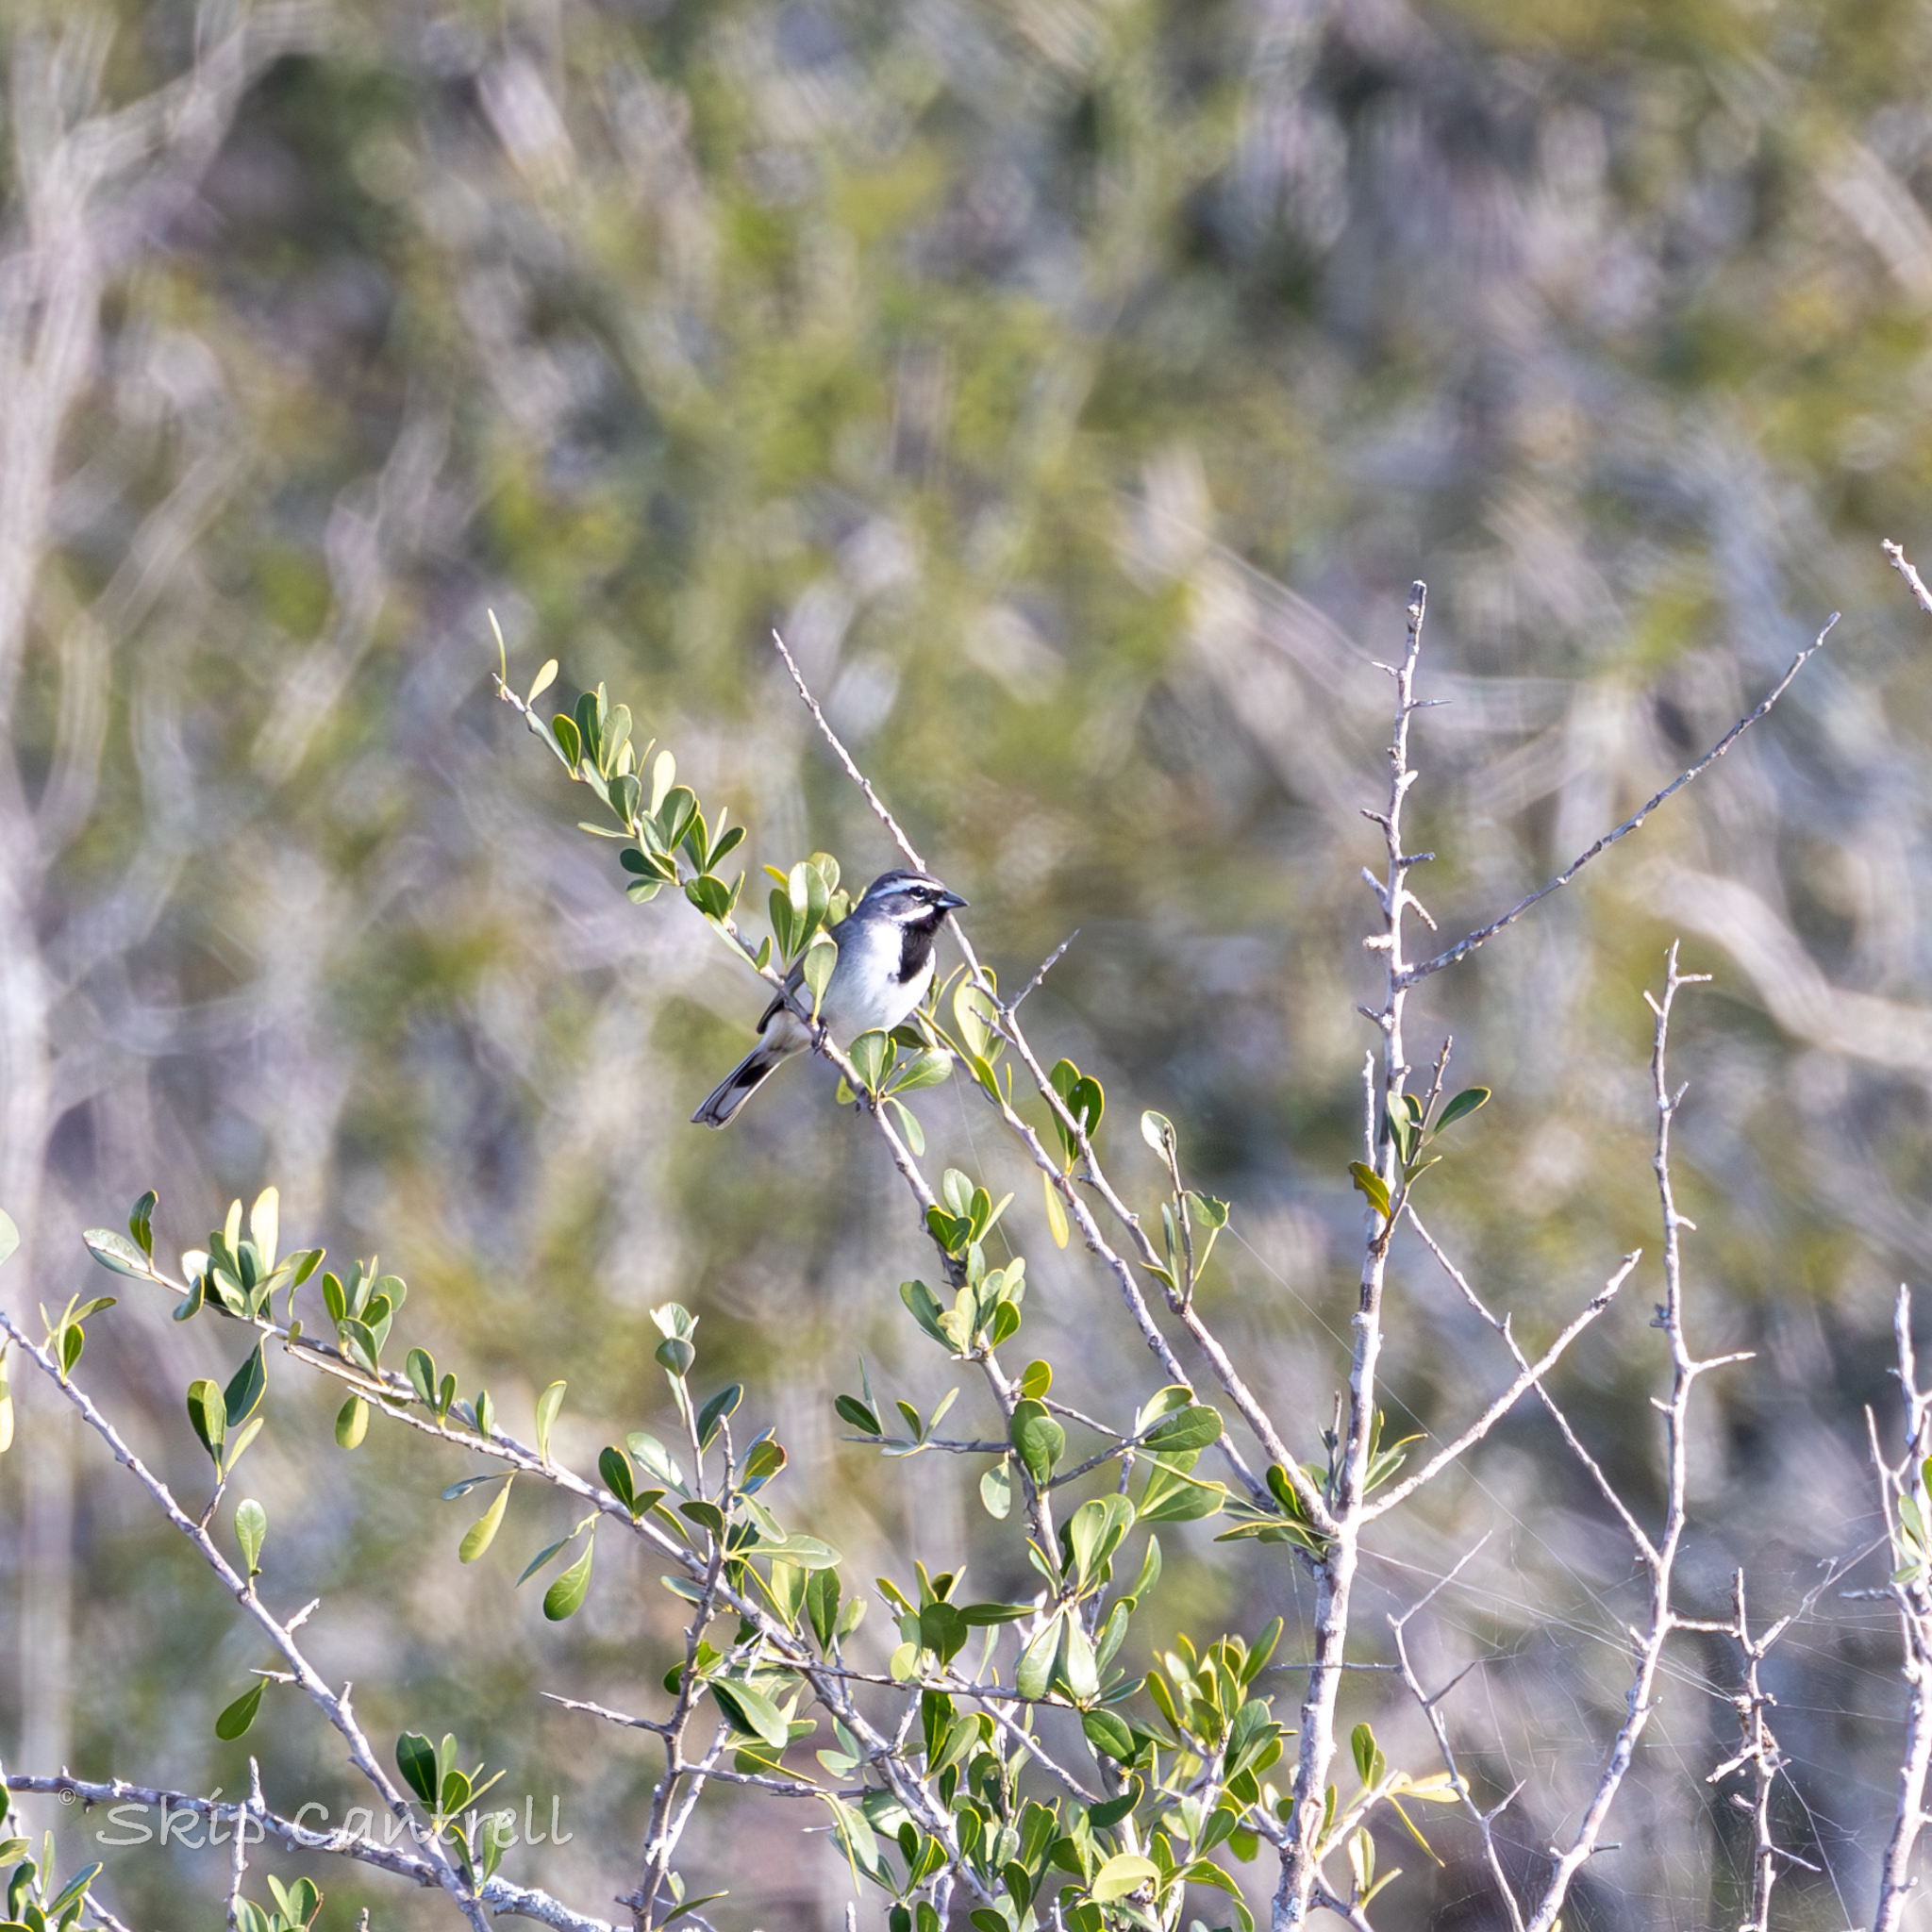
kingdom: Animalia
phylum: Chordata
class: Aves
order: Passeriformes
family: Passerellidae
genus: Amphispiza
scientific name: Amphispiza bilineata
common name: Black-throated sparrow
